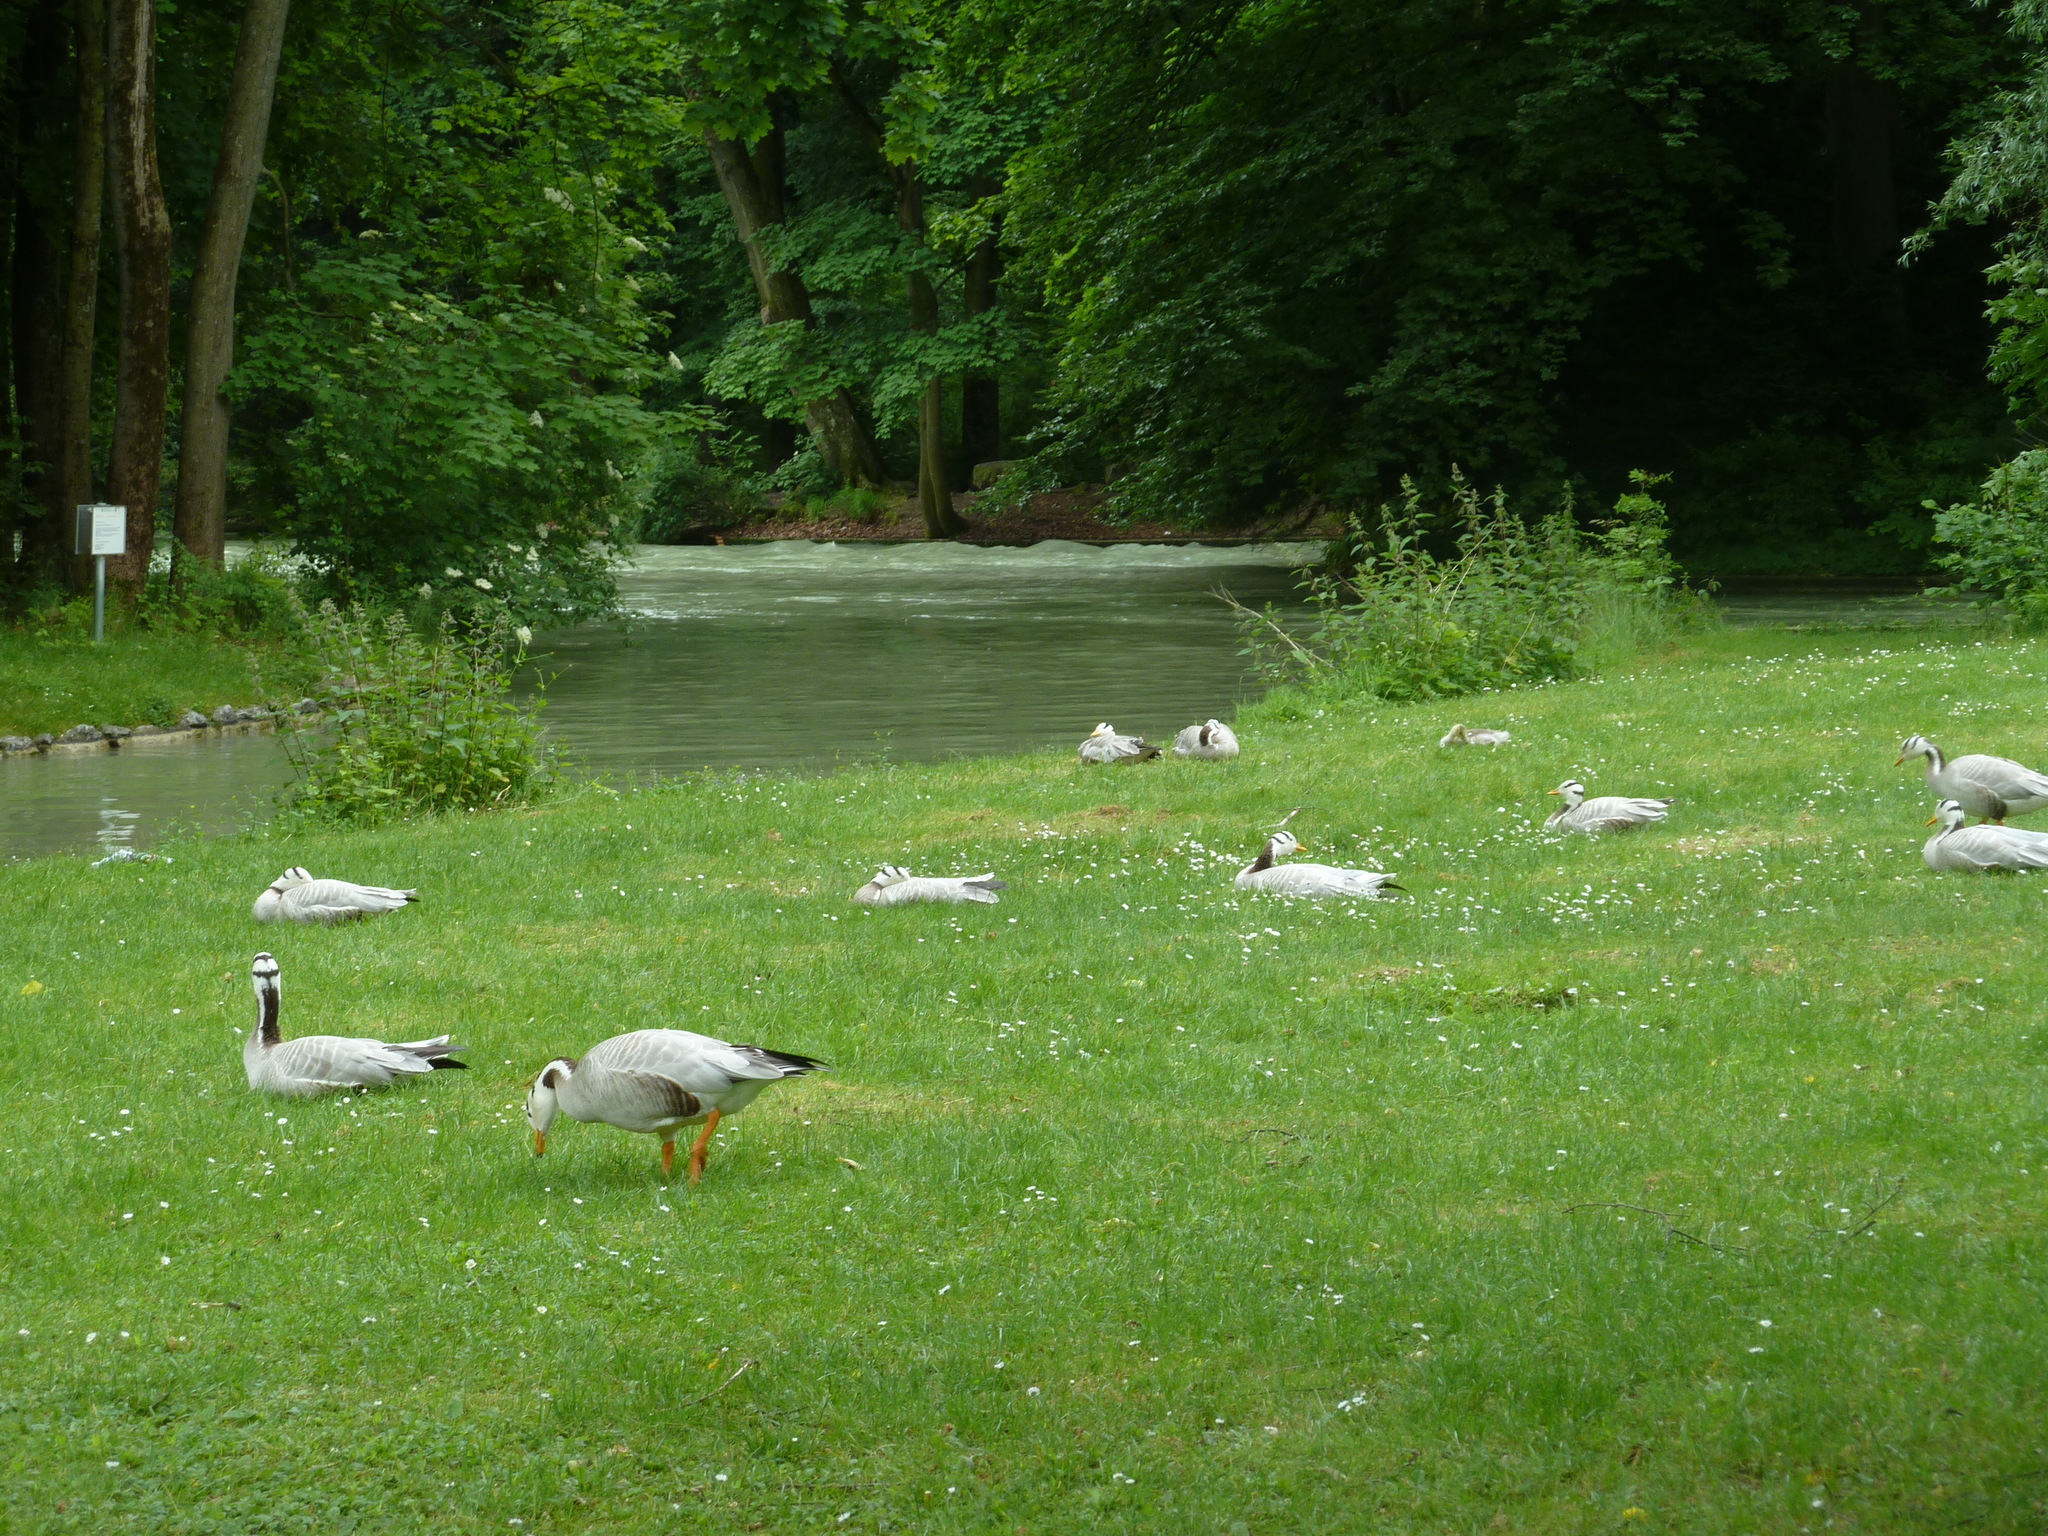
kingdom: Animalia
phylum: Chordata
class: Aves
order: Anseriformes
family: Anatidae
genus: Anser
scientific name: Anser indicus
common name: Bar-headed goose
